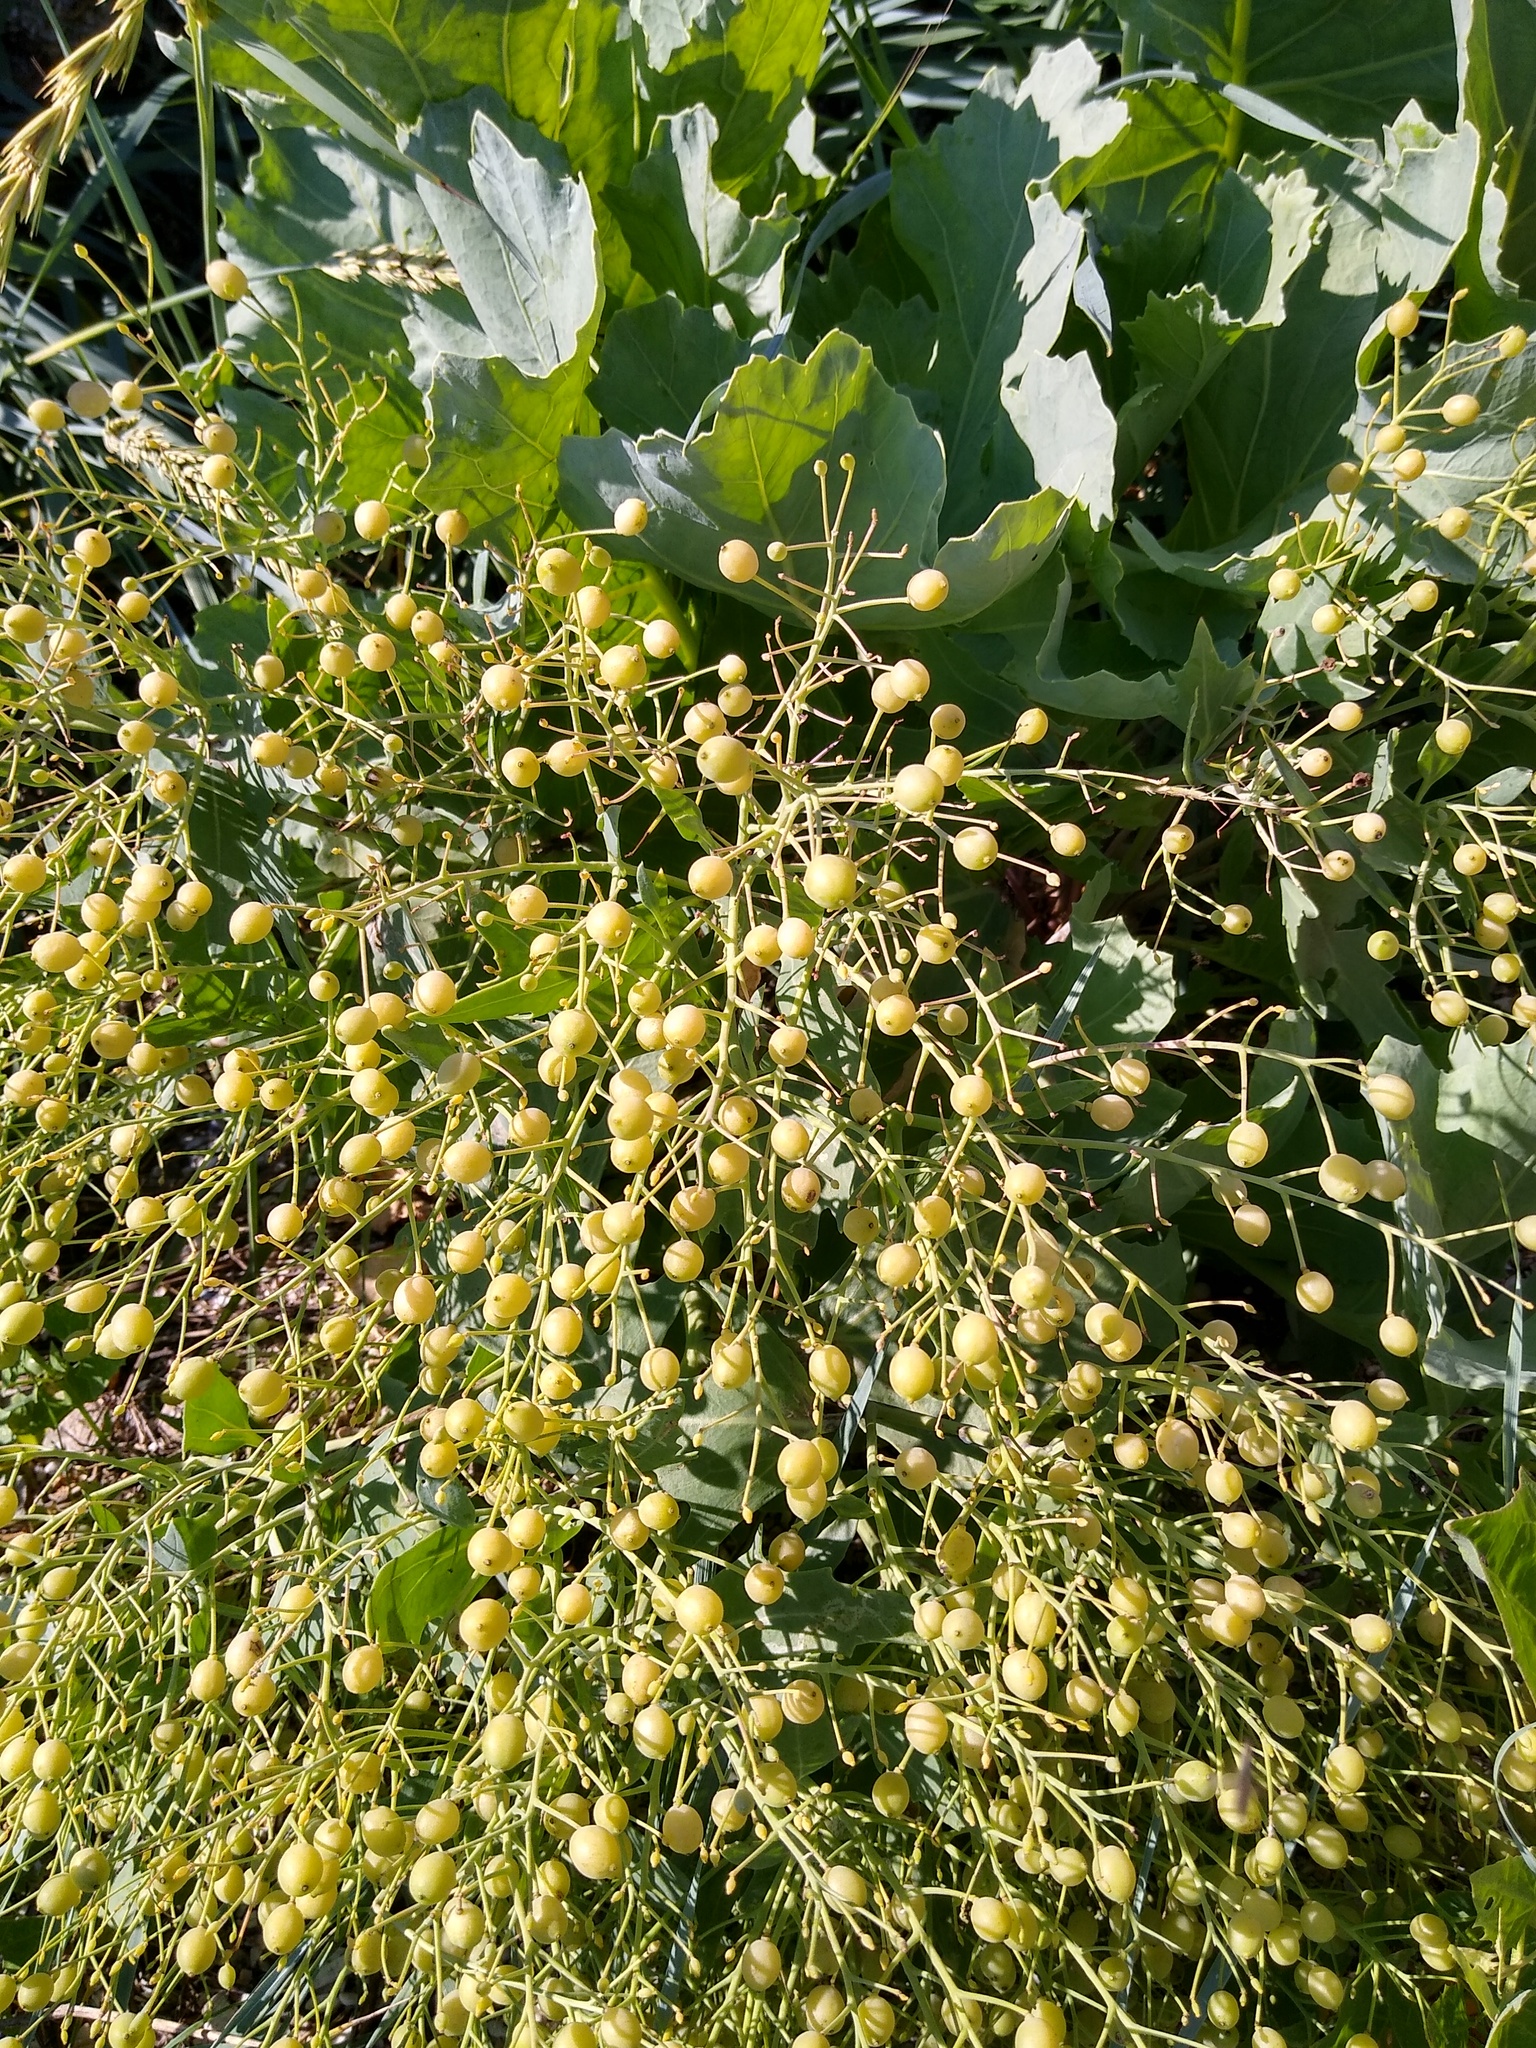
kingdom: Plantae
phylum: Tracheophyta
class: Magnoliopsida
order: Brassicales
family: Brassicaceae
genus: Crambe
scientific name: Crambe maritima
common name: Sea-kale
